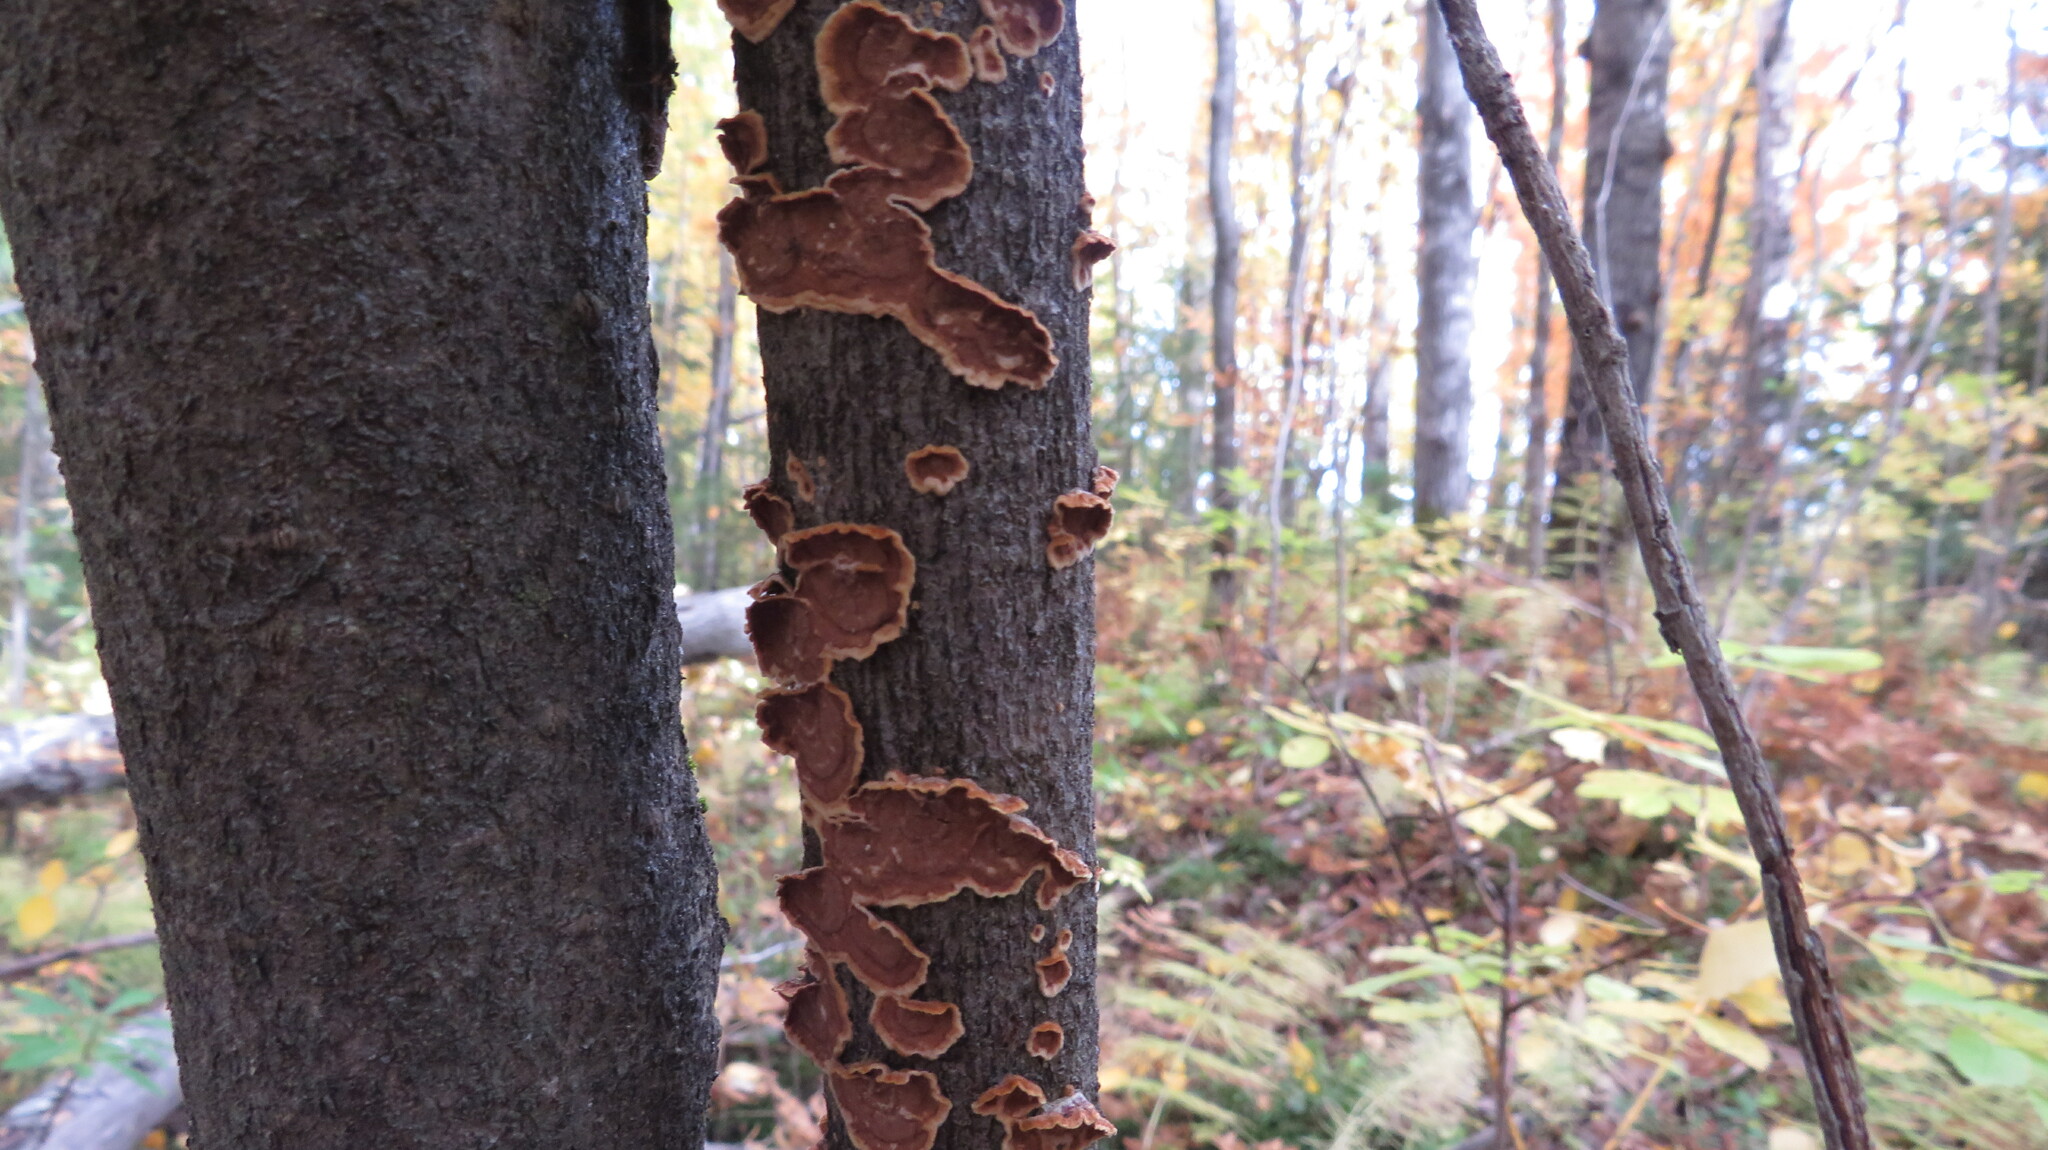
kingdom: Fungi
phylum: Basidiomycota
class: Agaricomycetes
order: Hymenochaetales
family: Hymenochaetaceae
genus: Hydnoporia
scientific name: Hydnoporia tabacina
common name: Willow glue
